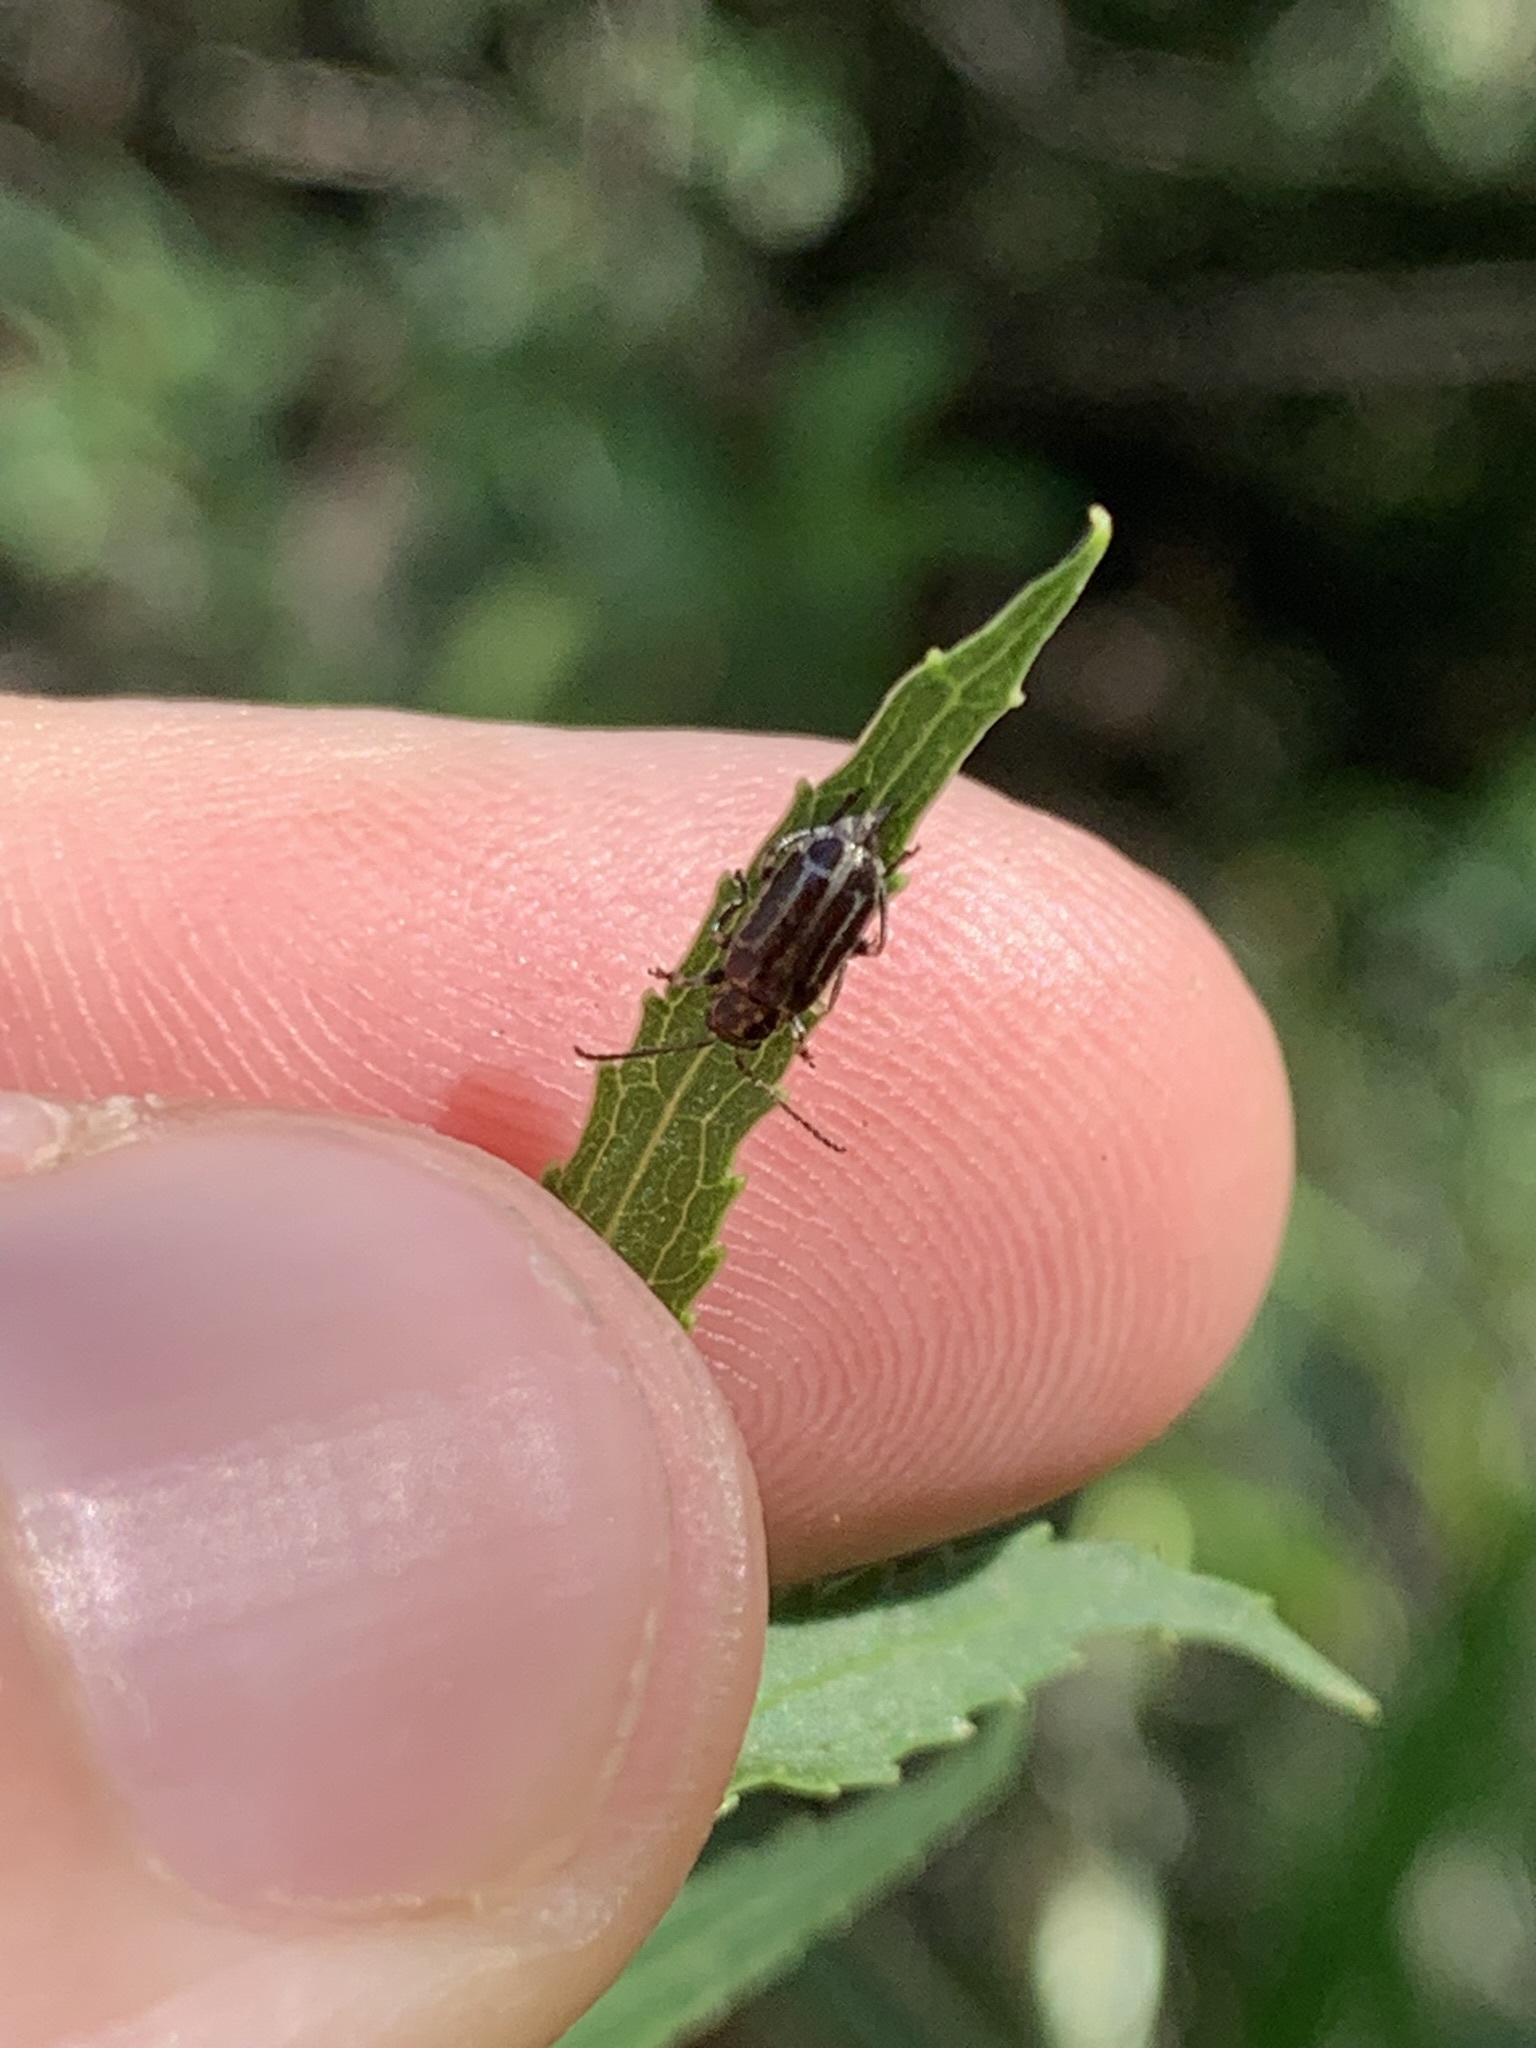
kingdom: Animalia
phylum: Arthropoda
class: Insecta
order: Coleoptera
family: Chrysomelidae
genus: Anisobrotica
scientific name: Anisobrotica
